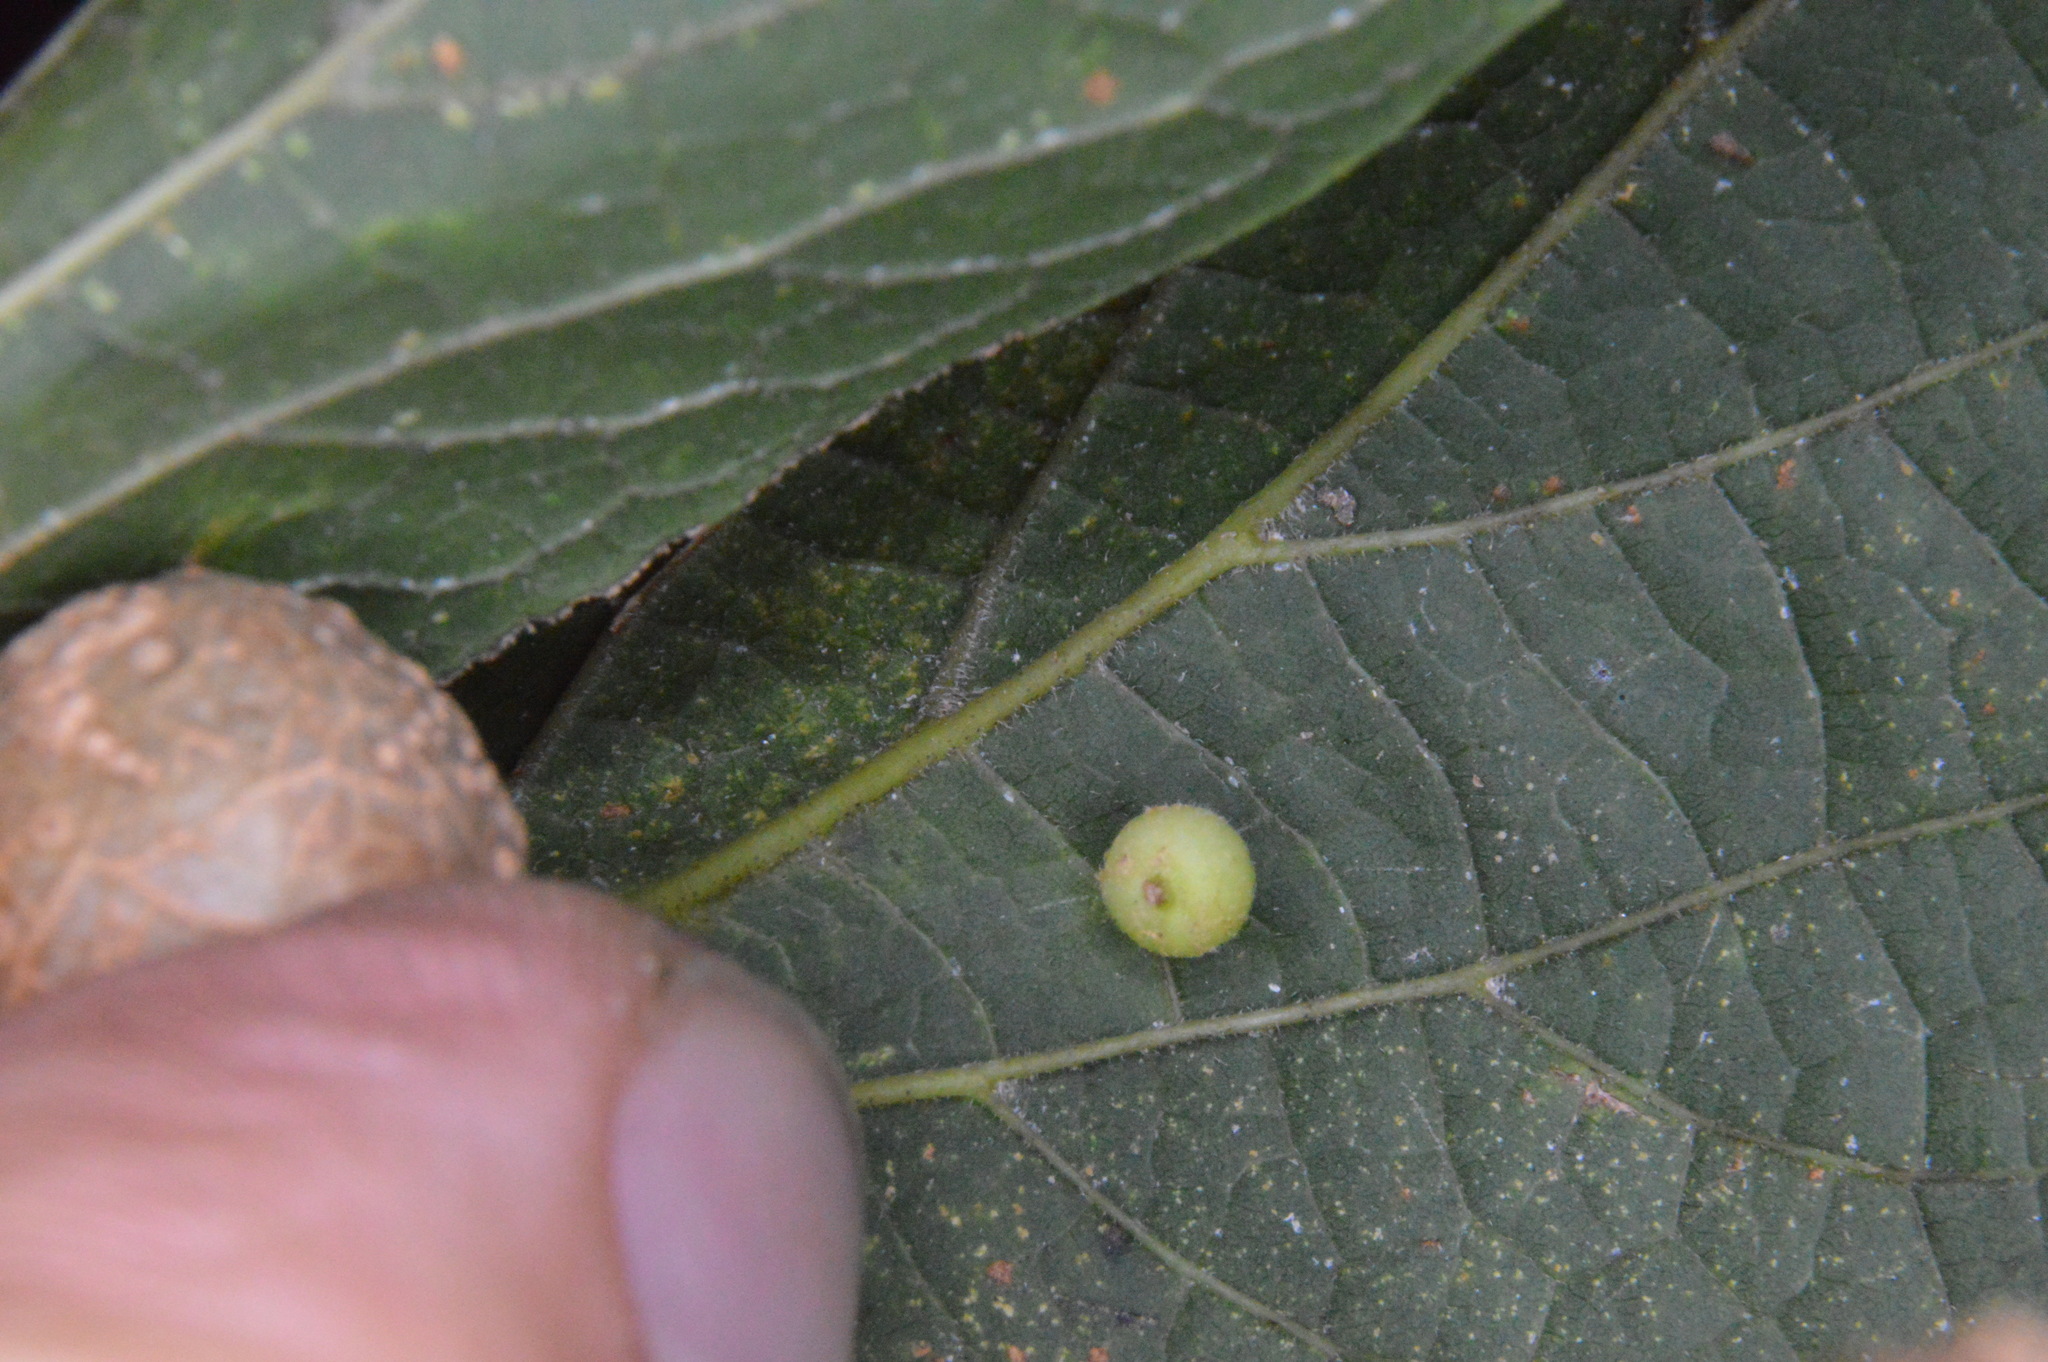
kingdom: Animalia
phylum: Arthropoda
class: Insecta
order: Diptera
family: Cecidomyiidae
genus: Celticecis
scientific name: Celticecis globosa
